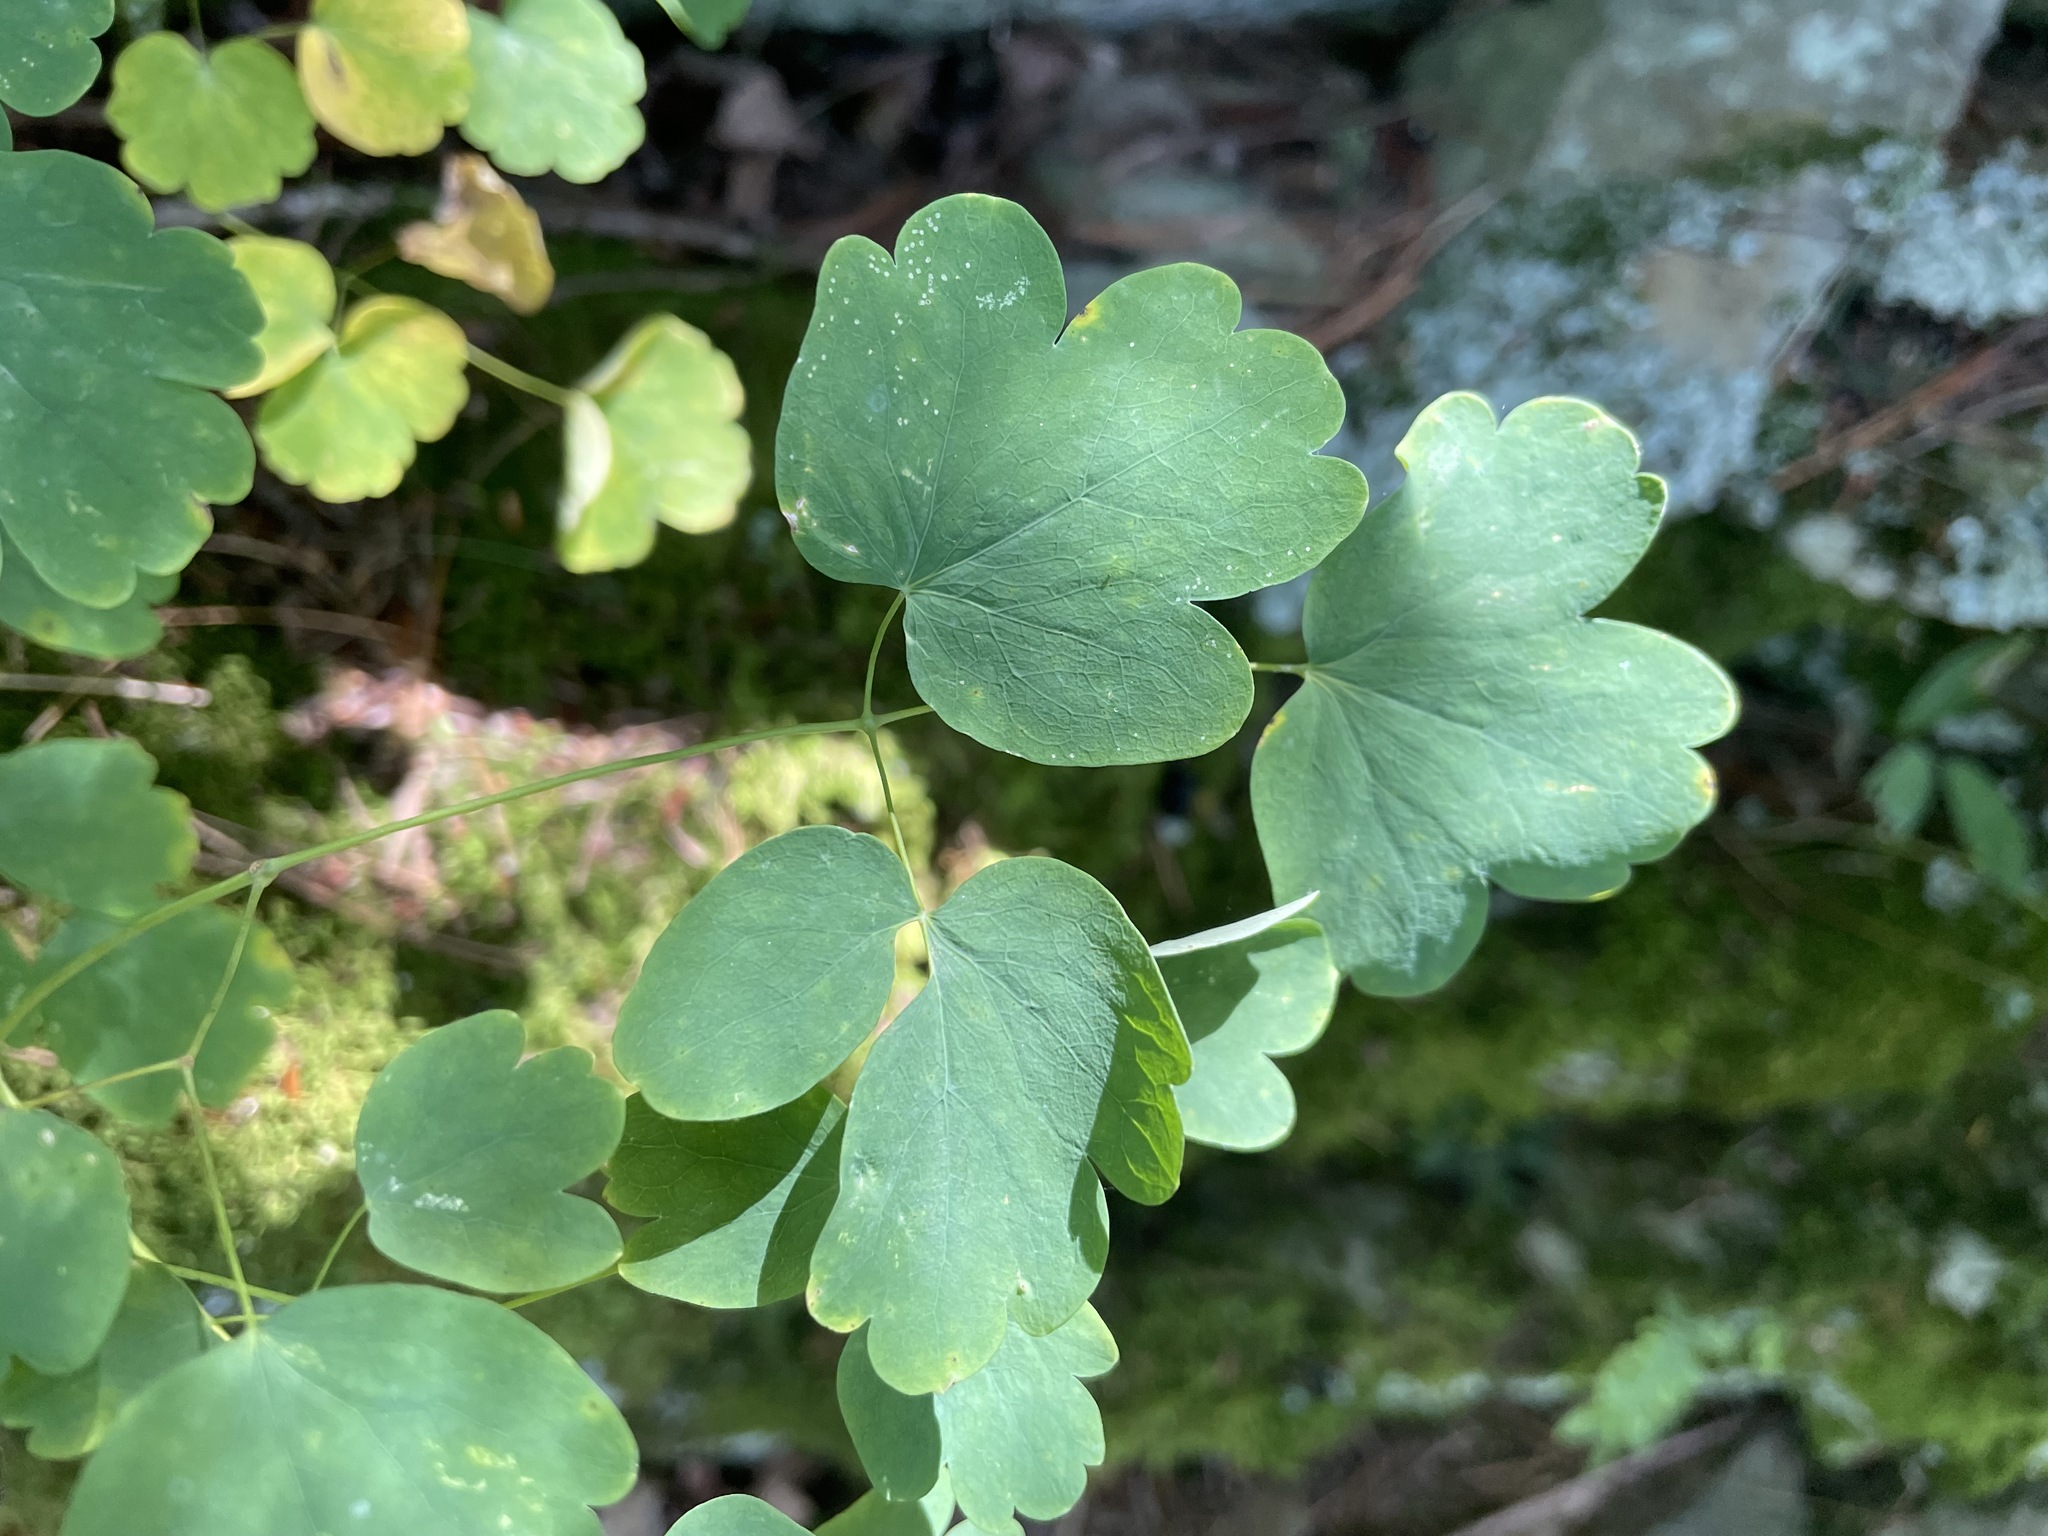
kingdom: Plantae
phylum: Tracheophyta
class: Magnoliopsida
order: Ranunculales
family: Ranunculaceae
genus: Thalictrum
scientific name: Thalictrum dioicum
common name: Early meadow-rue
